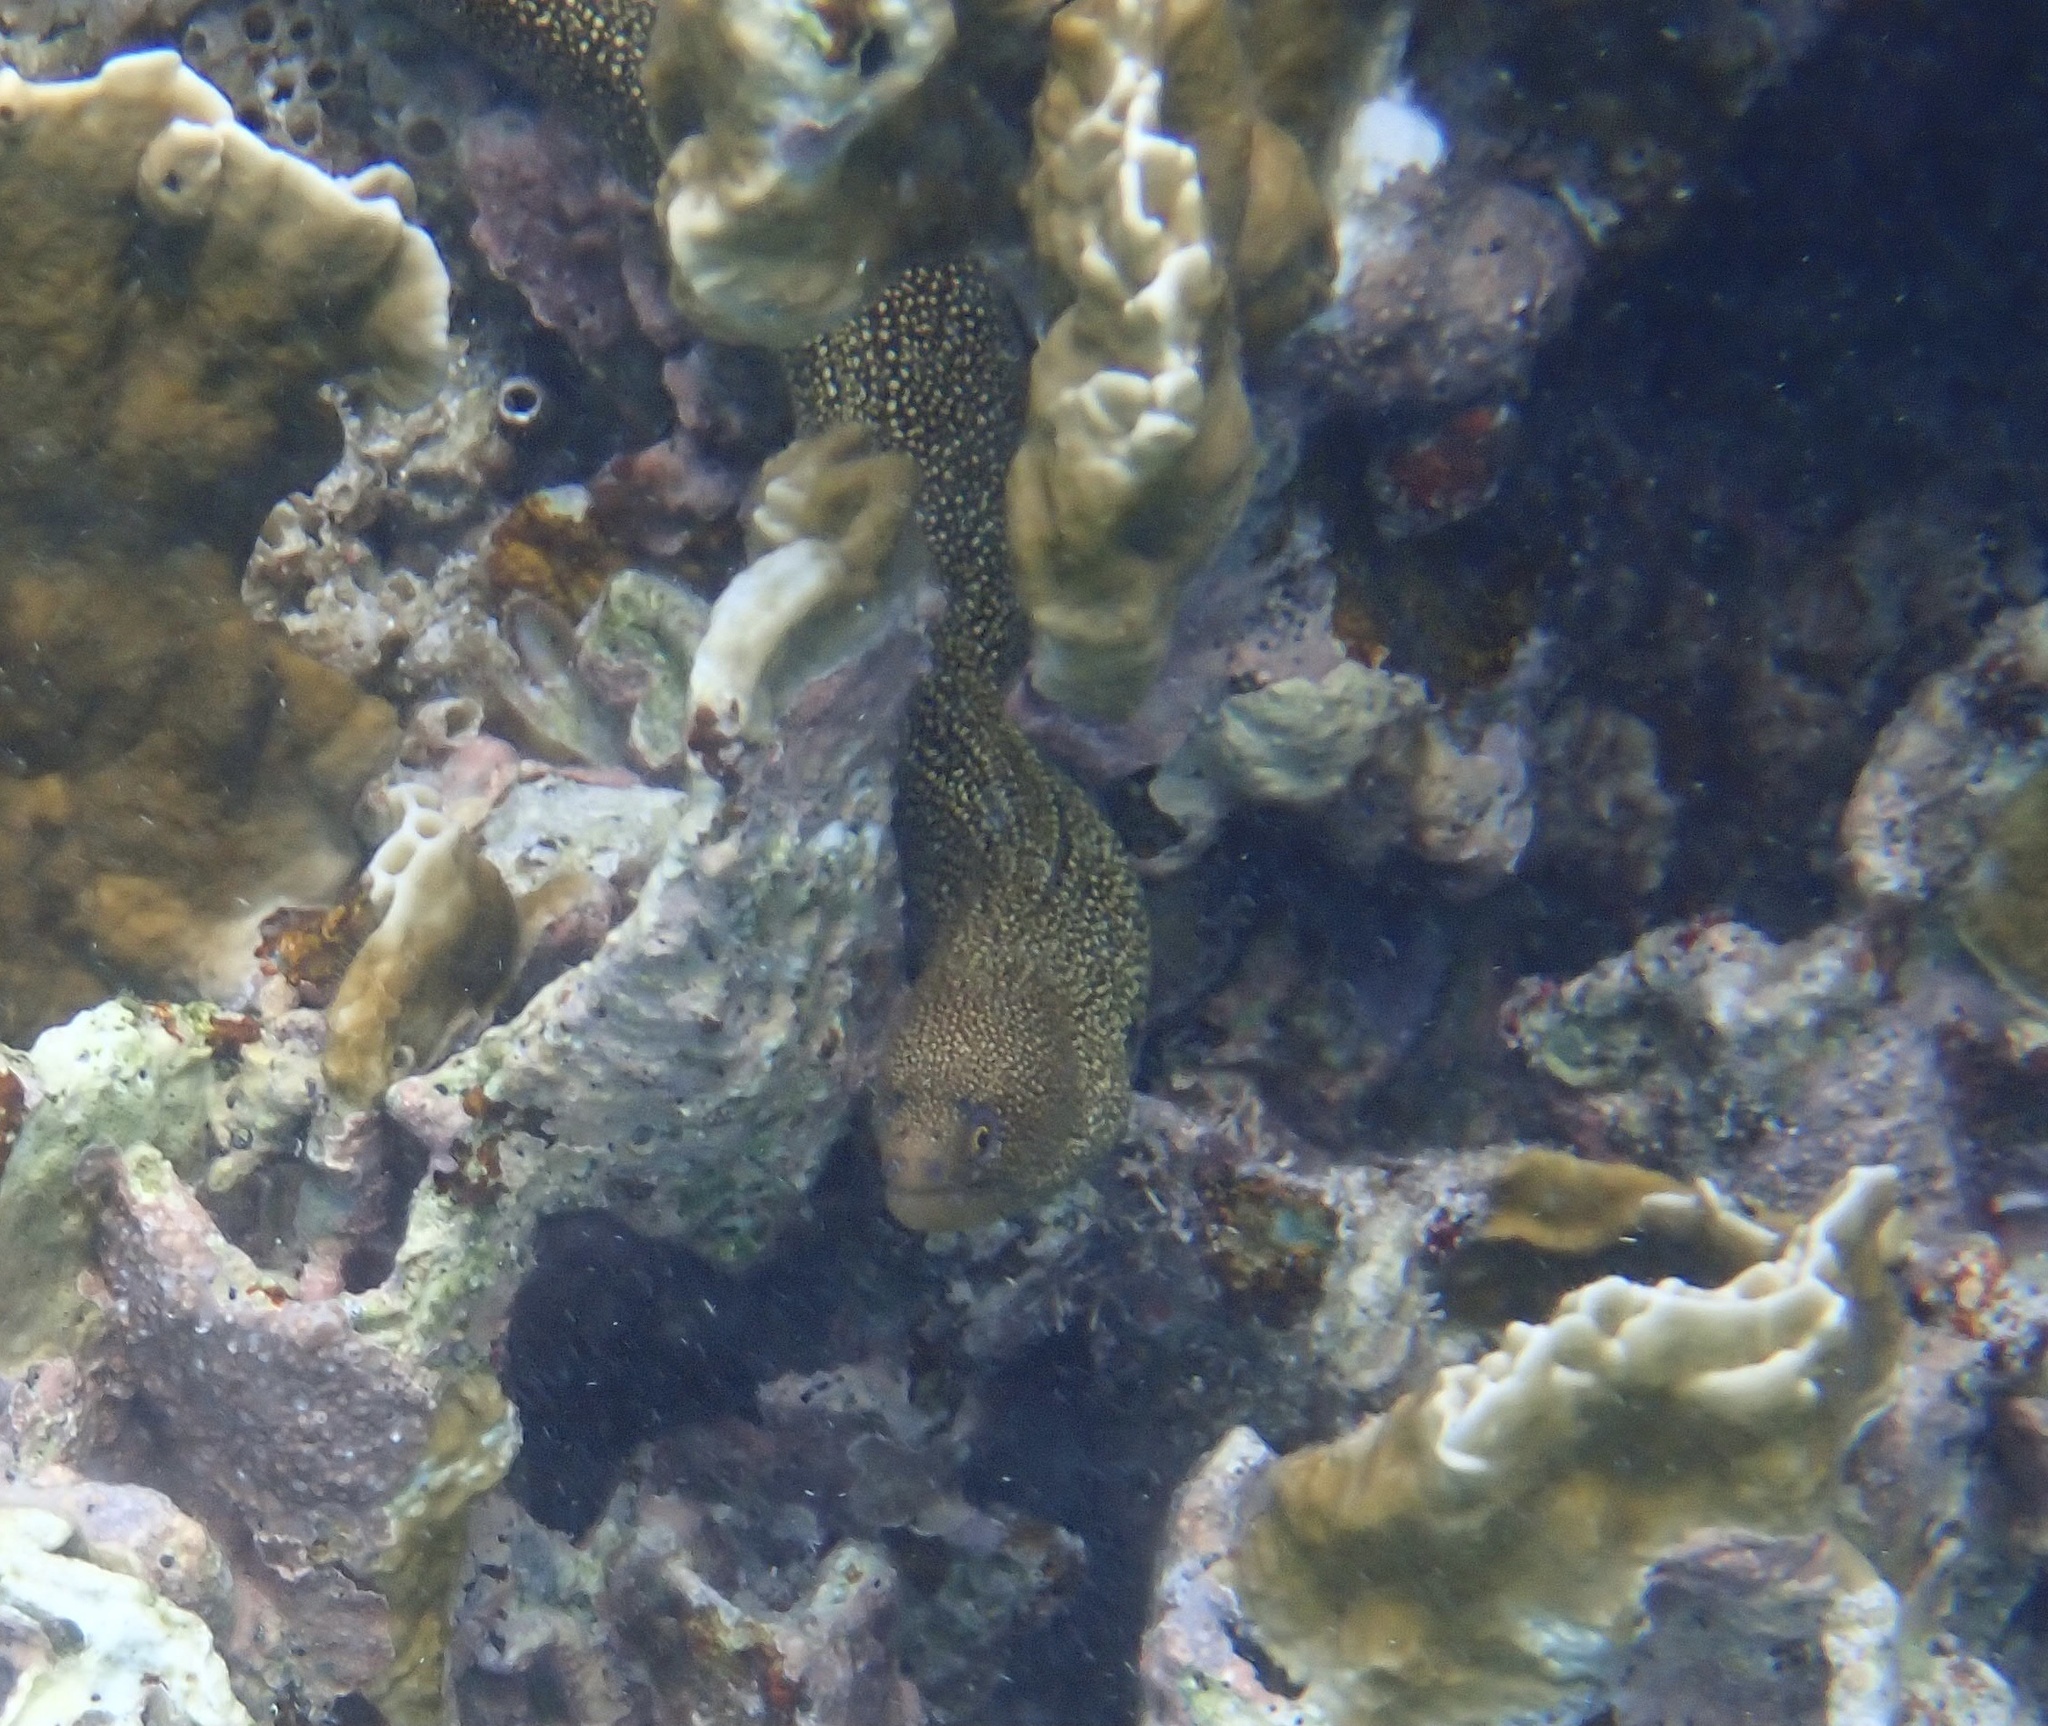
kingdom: Animalia
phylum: Chordata
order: Anguilliformes
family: Muraenidae
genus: Gymnothorax
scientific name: Gymnothorax miliaris
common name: Goldentail moray
